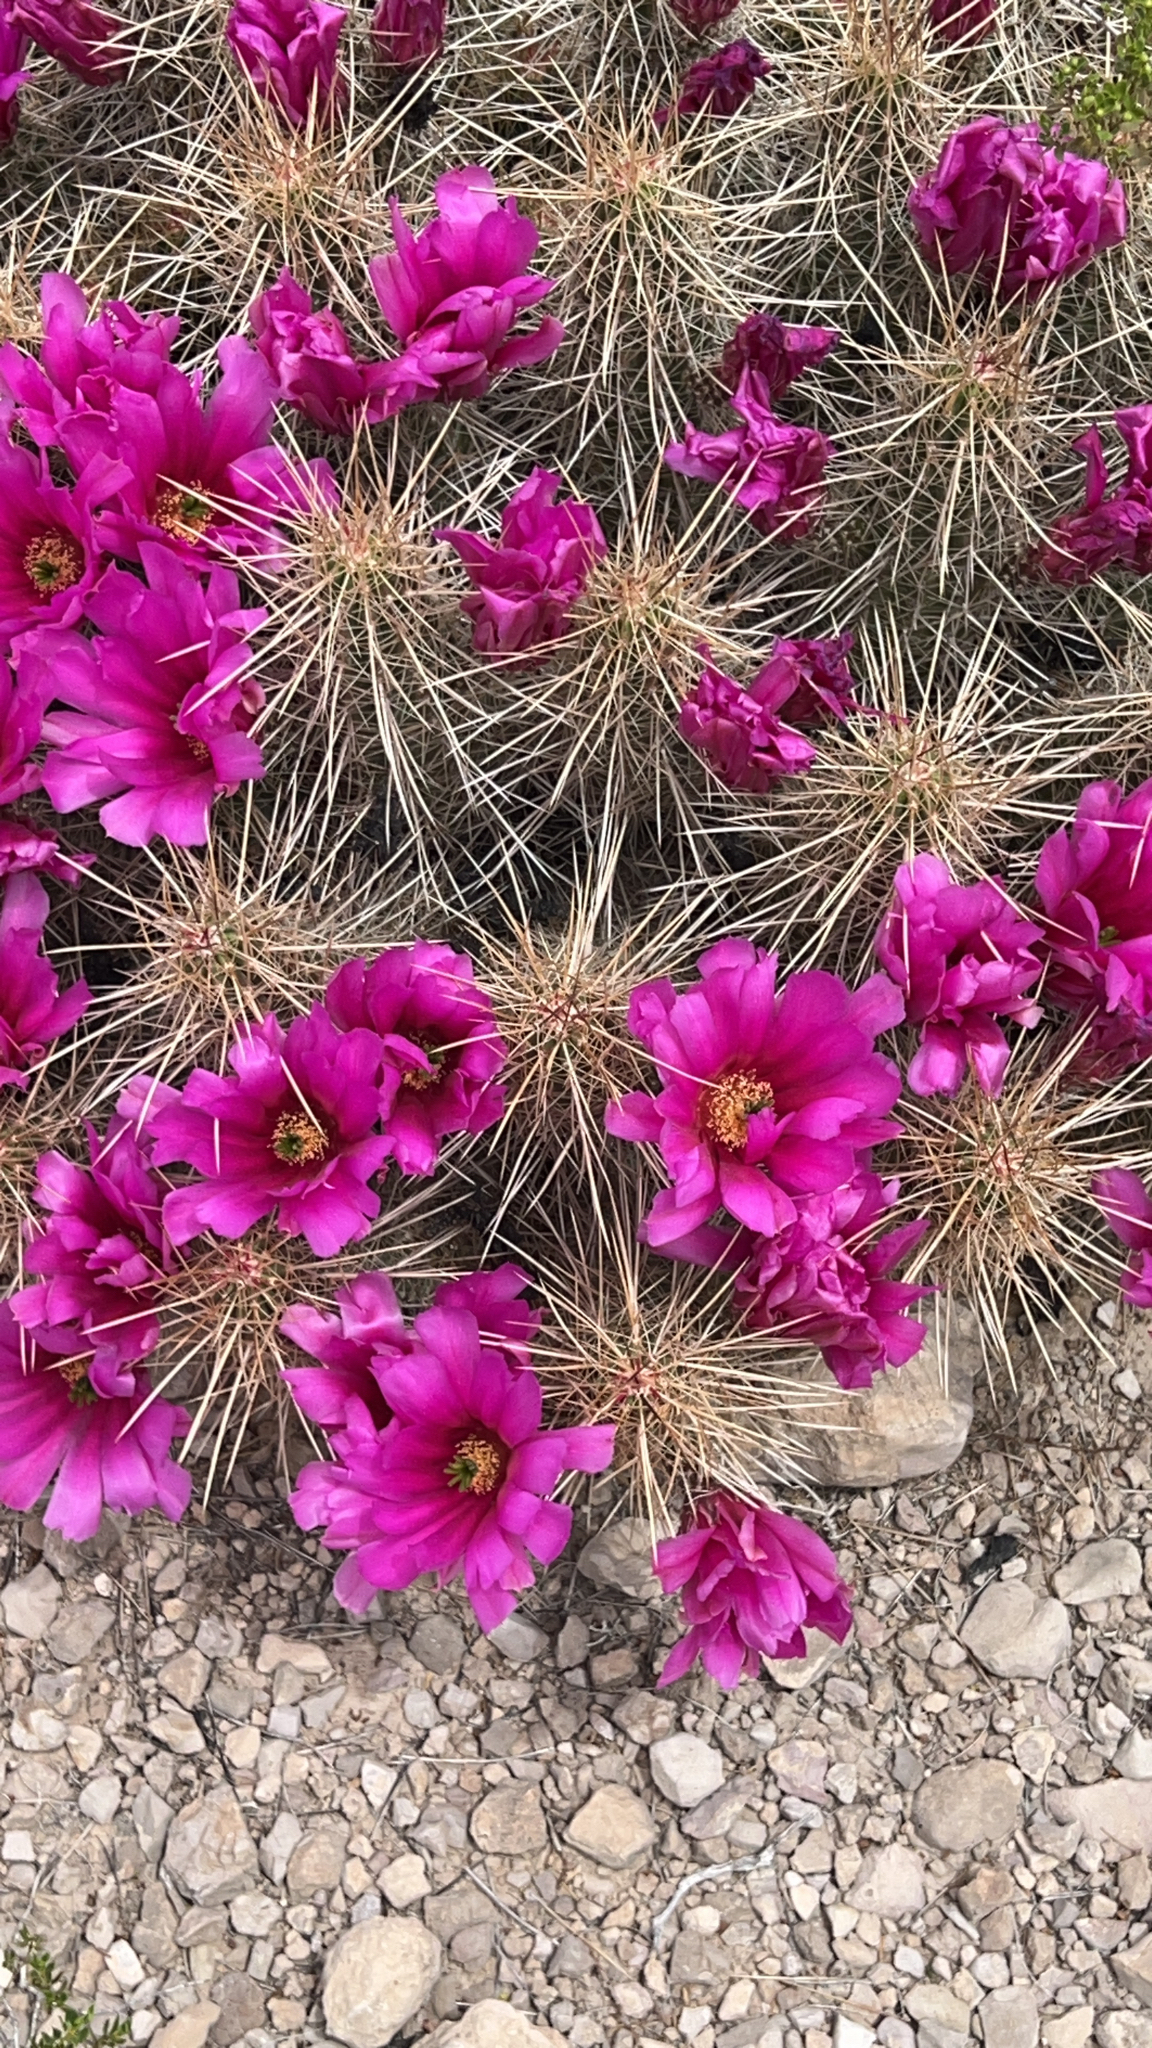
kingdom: Plantae
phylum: Tracheophyta
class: Magnoliopsida
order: Caryophyllales
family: Cactaceae
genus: Echinocereus
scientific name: Echinocereus stramineus
